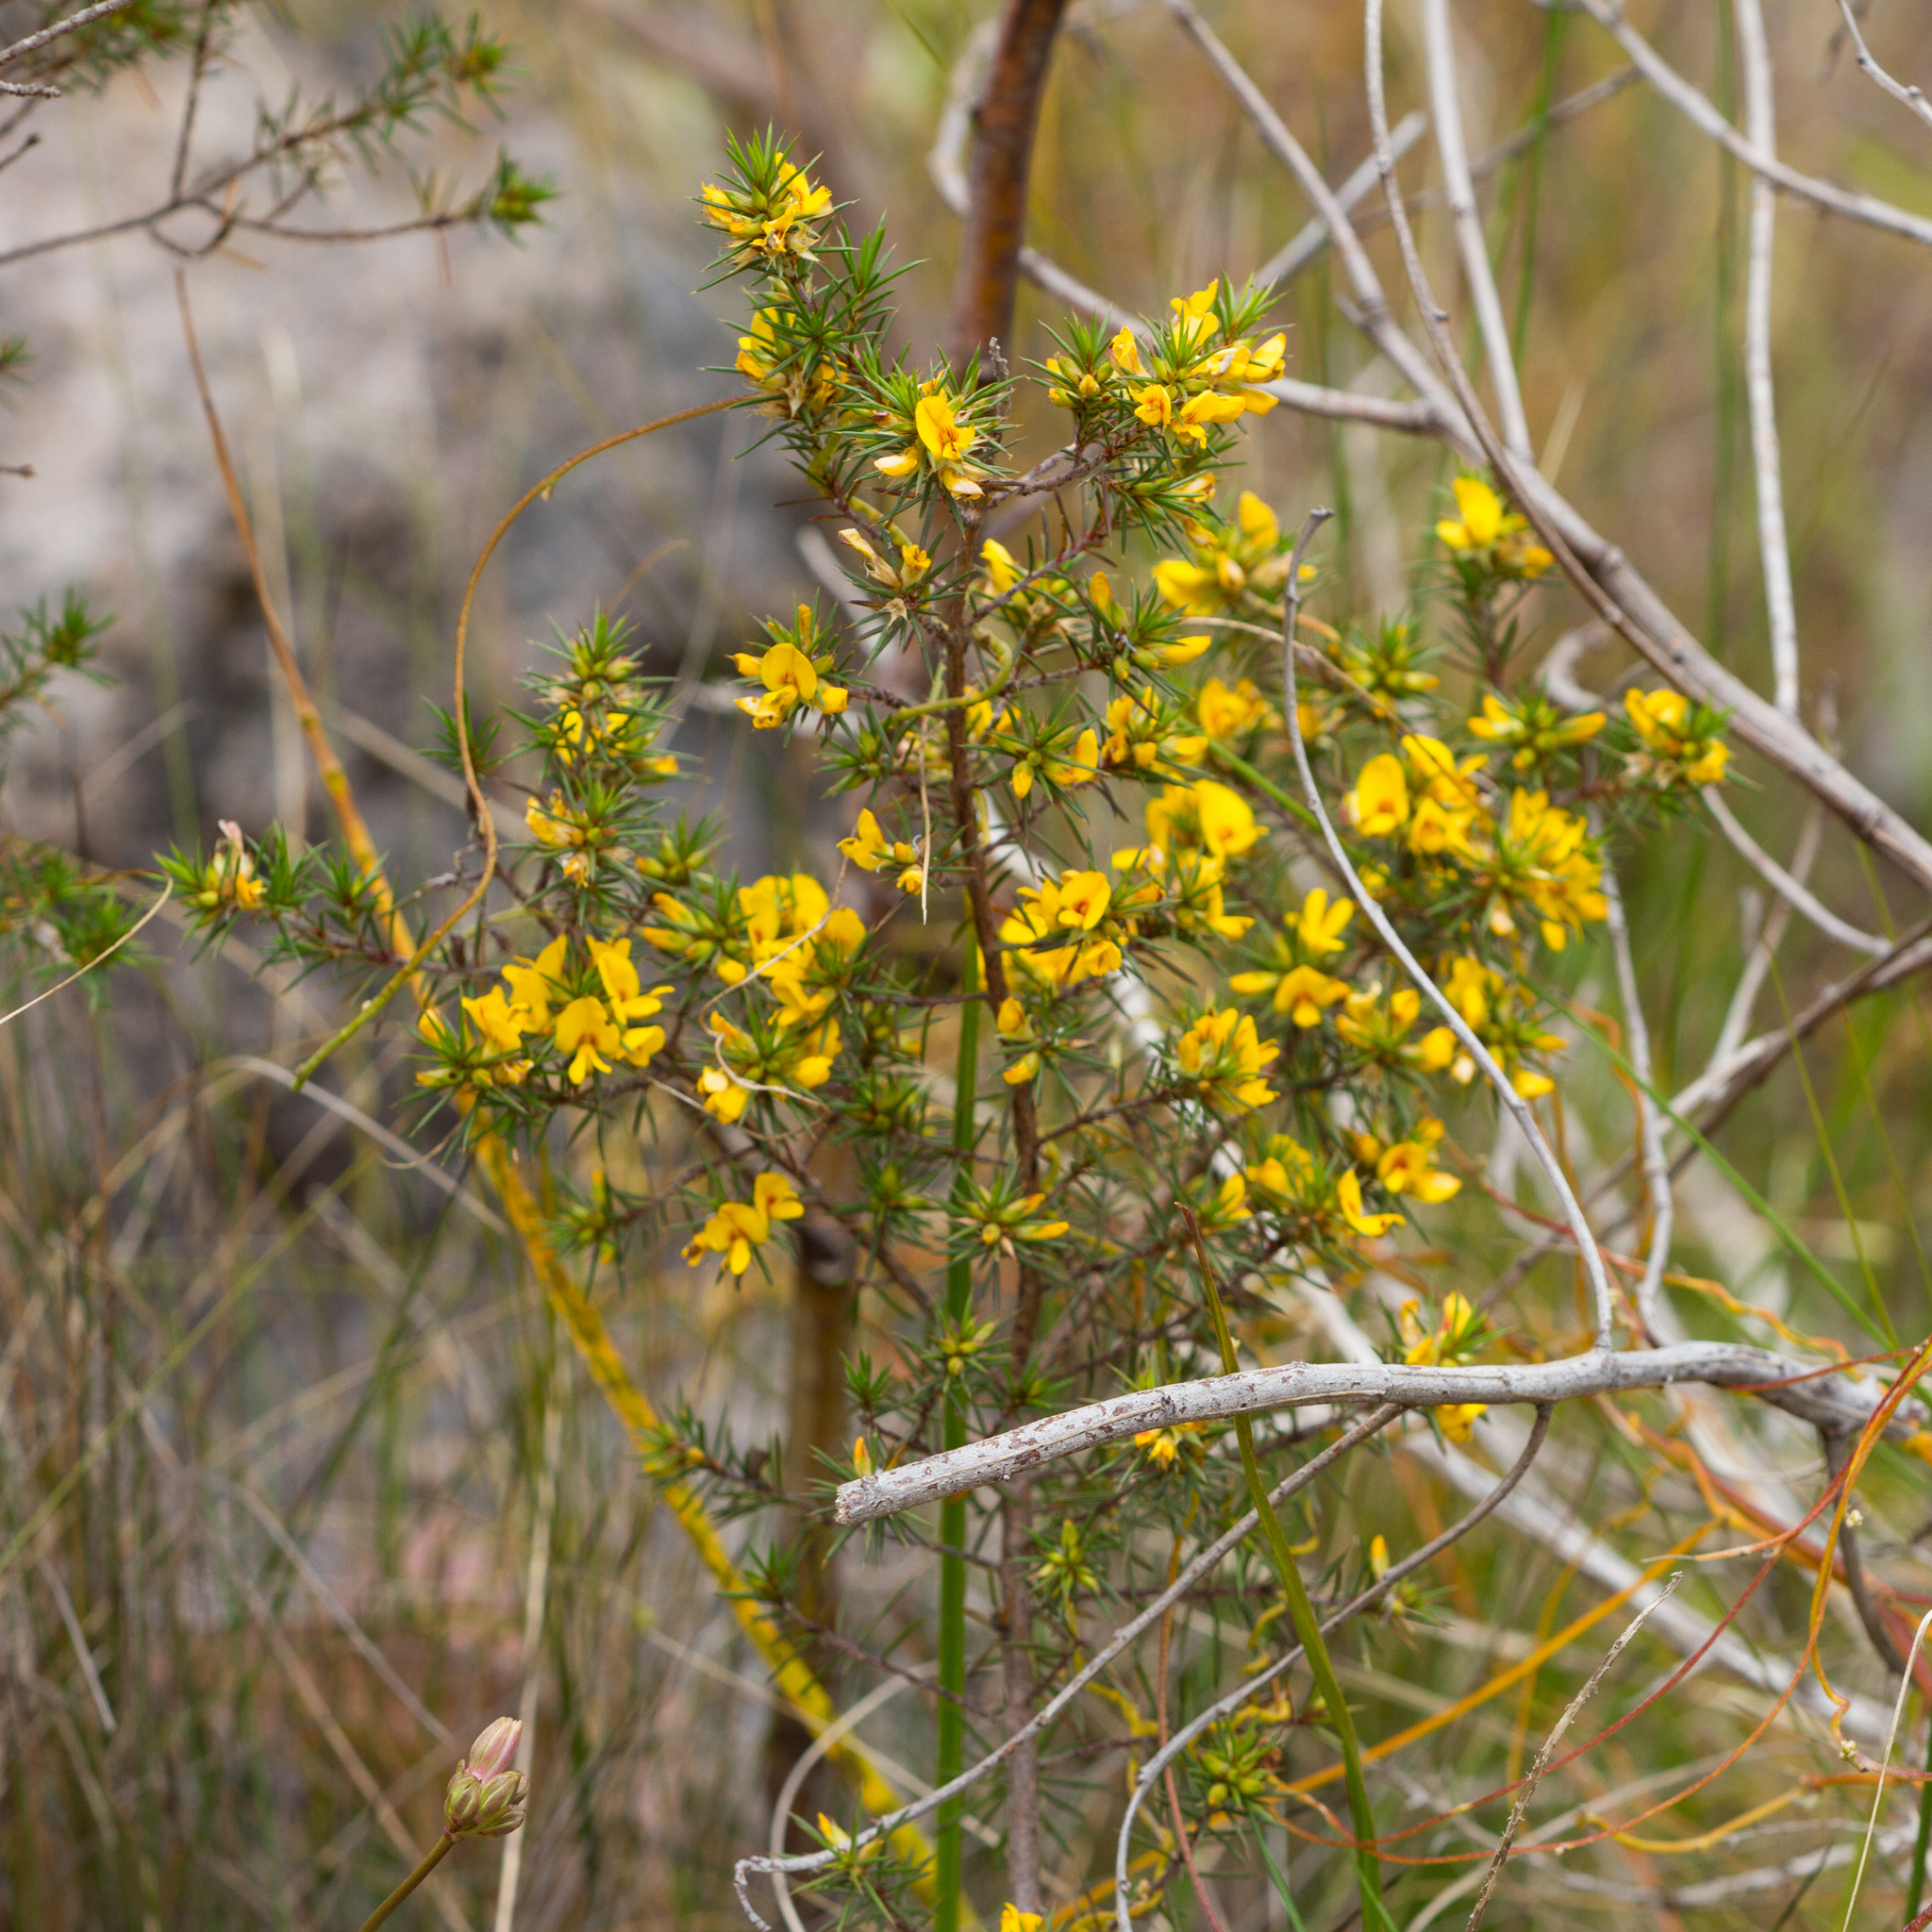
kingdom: Plantae
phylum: Tracheophyta
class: Magnoliopsida
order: Fabales
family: Fabaceae
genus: Pultenaea
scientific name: Pultenaea acerosa
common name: Bristly bush-pea
